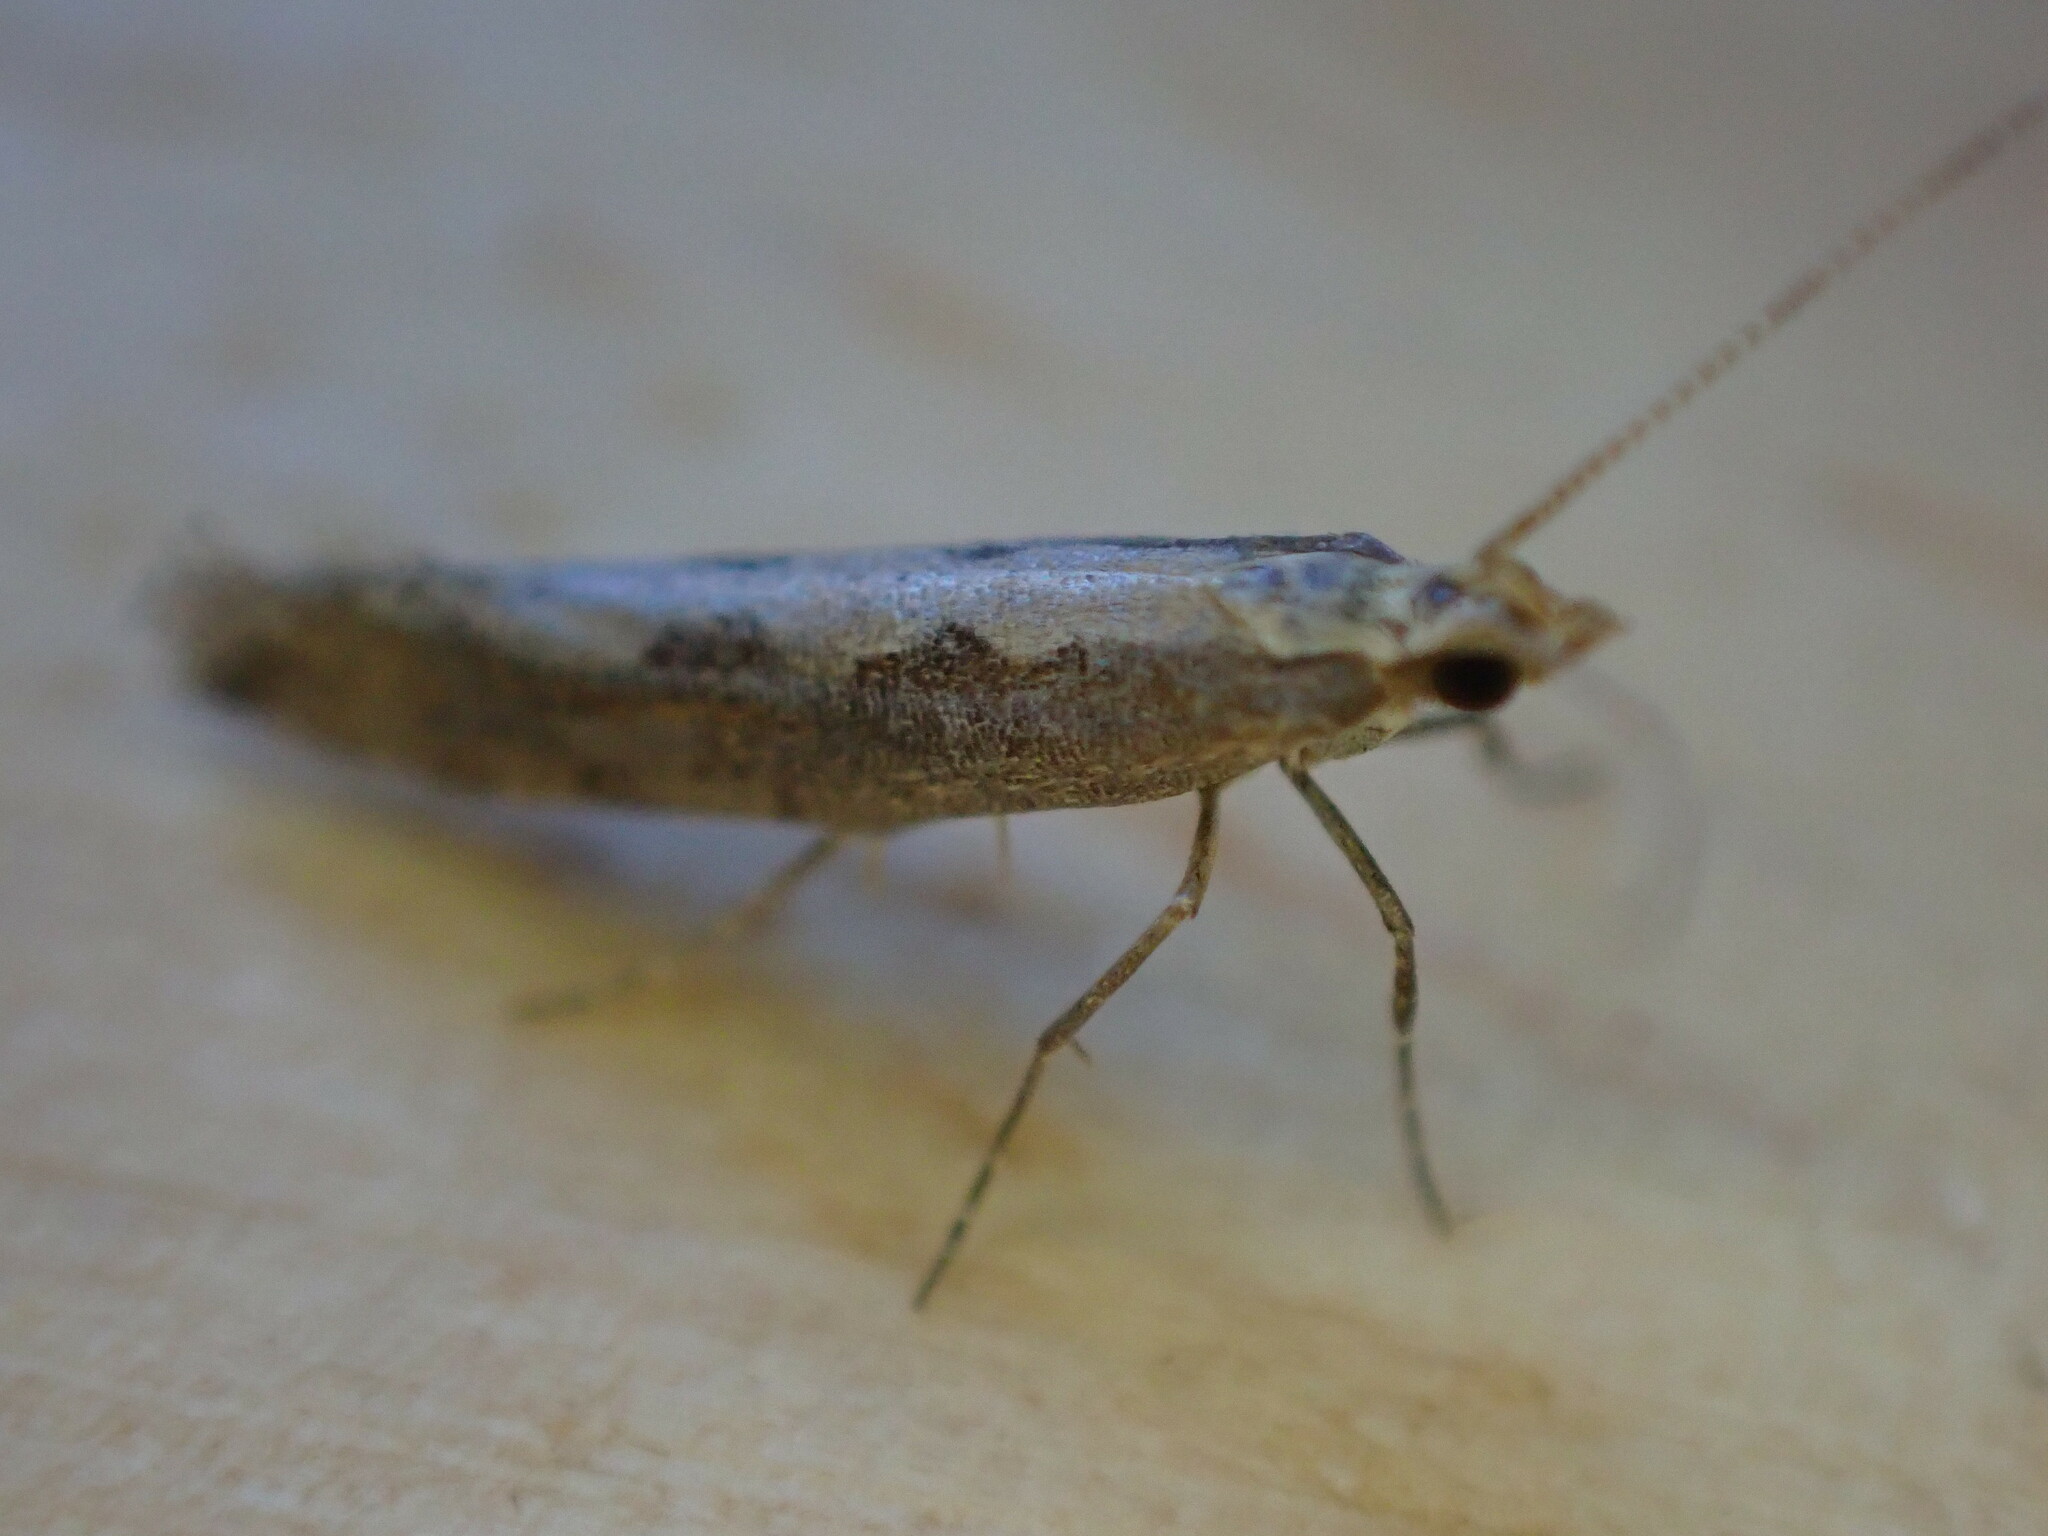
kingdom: Animalia
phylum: Arthropoda
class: Insecta
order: Lepidoptera
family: Plutellidae
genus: Plutella
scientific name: Plutella xylostella
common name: Diamond-back moth
